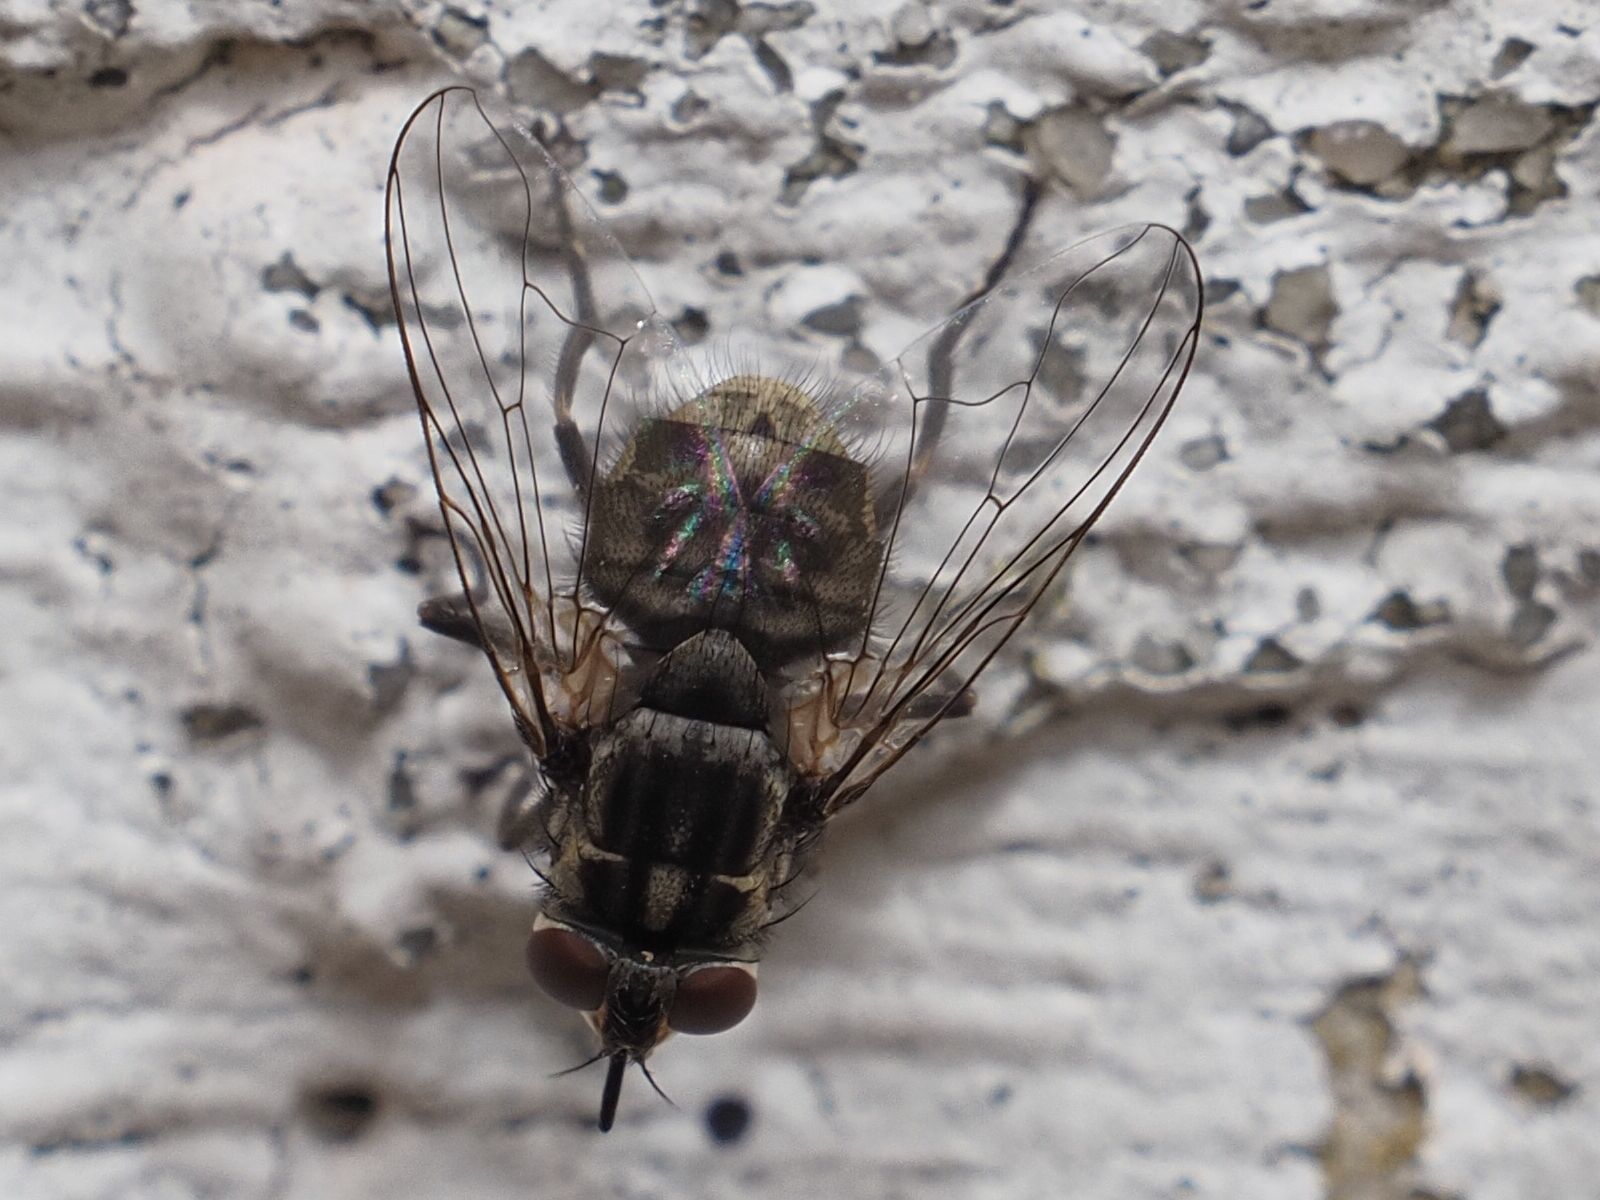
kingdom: Animalia
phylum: Arthropoda
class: Insecta
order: Diptera
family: Muscidae
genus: Stomoxys
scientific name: Stomoxys calcitrans
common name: Stable fly
